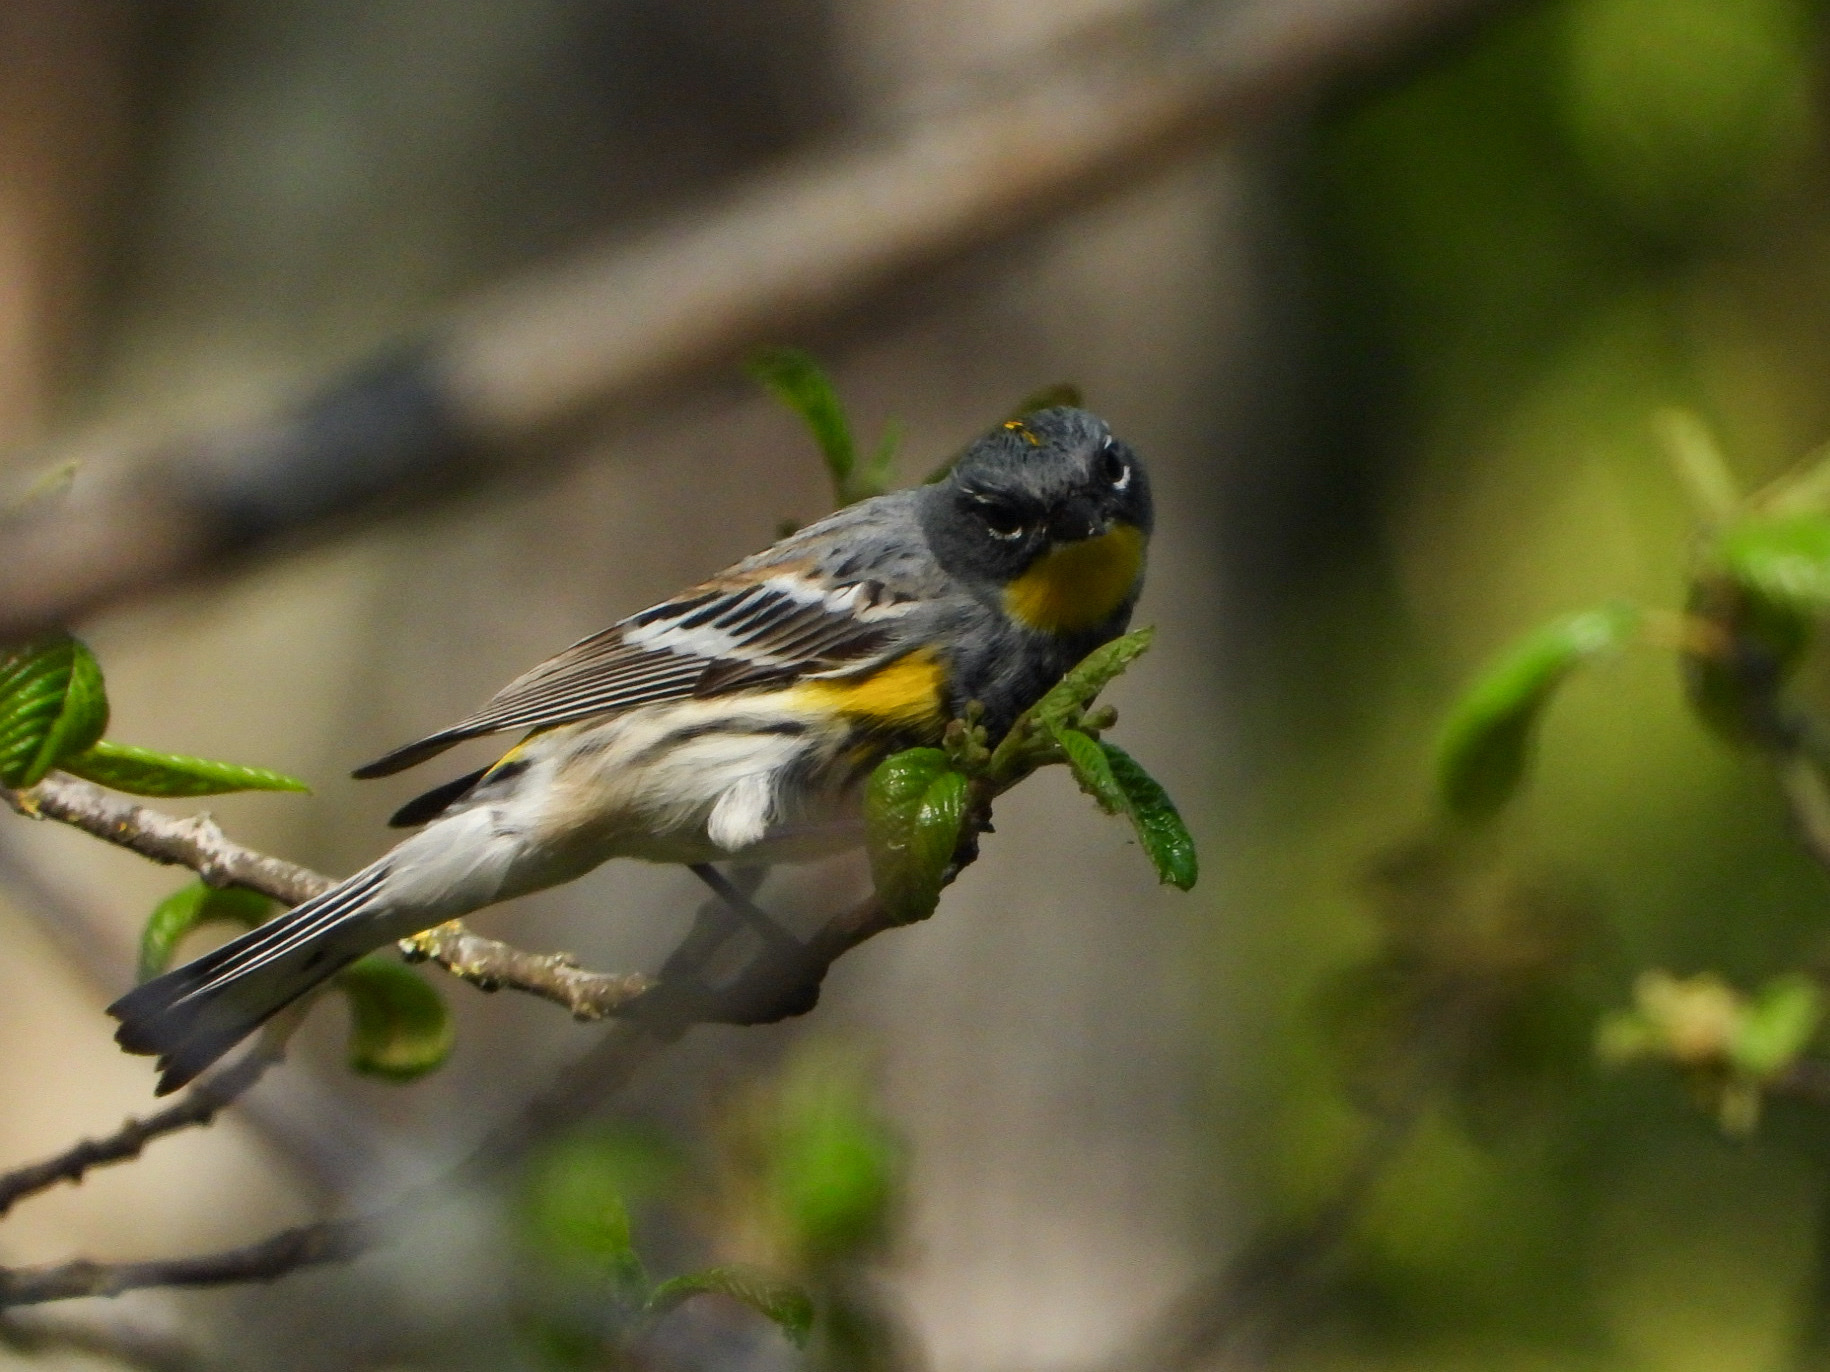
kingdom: Animalia
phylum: Chordata
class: Aves
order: Passeriformes
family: Parulidae
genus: Setophaga
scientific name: Setophaga auduboni
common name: Audubon's warbler
